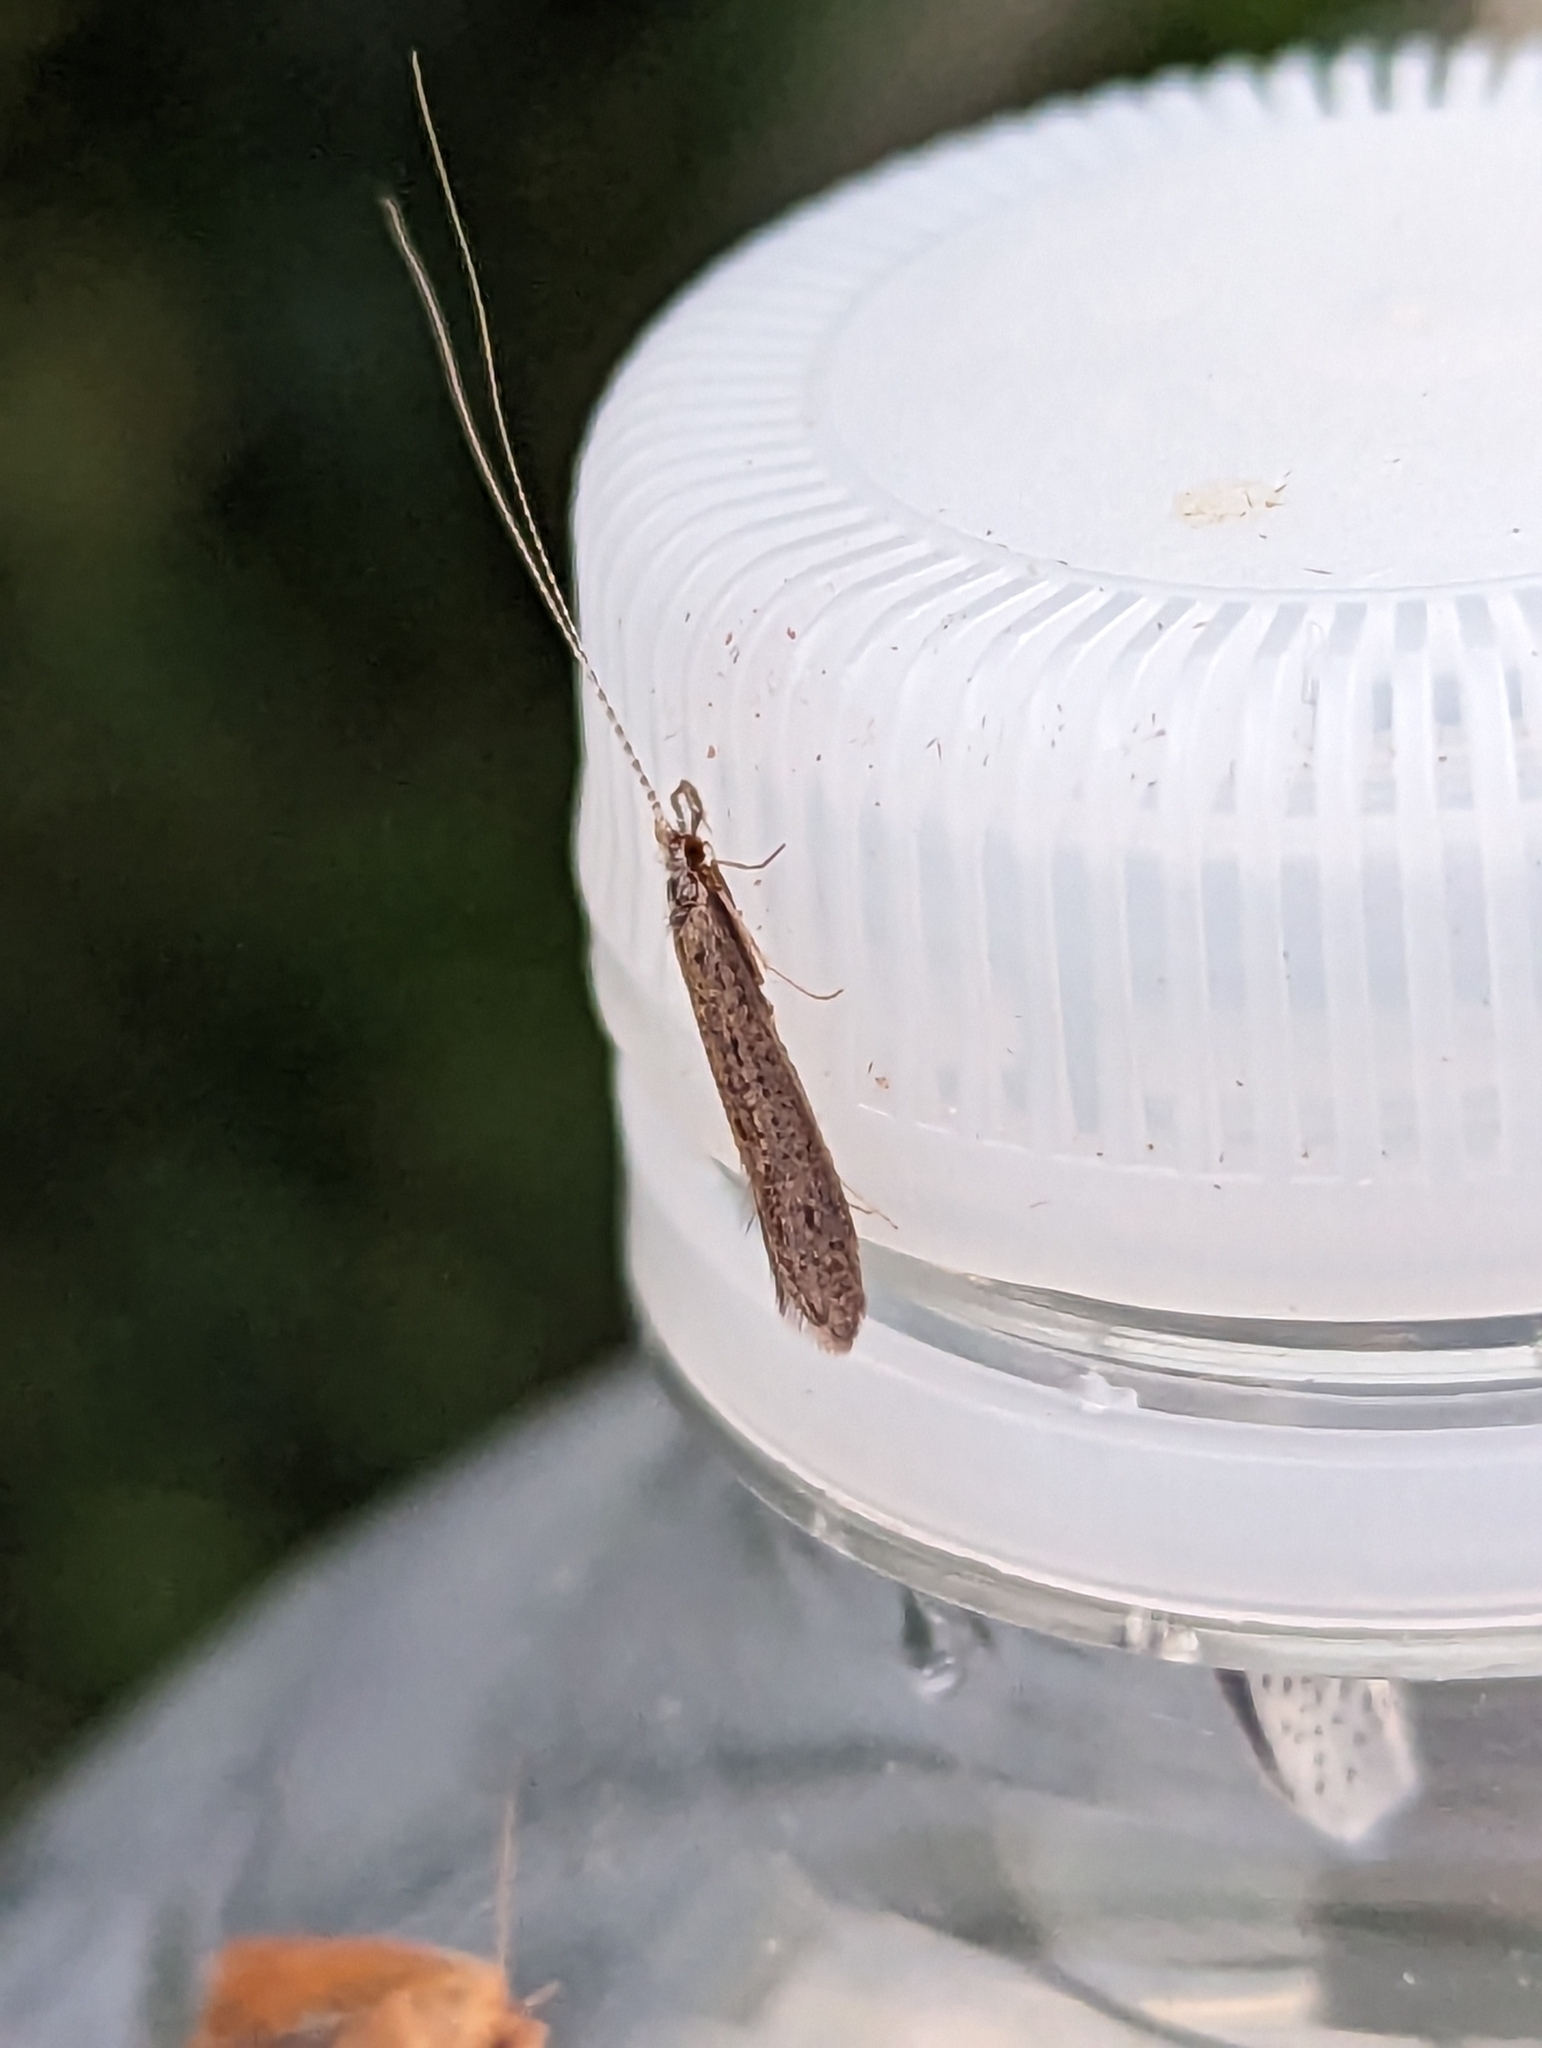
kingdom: Animalia
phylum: Arthropoda
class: Insecta
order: Trichoptera
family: Leptoceridae
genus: Leptocerus
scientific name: Leptocerus tineiformis
